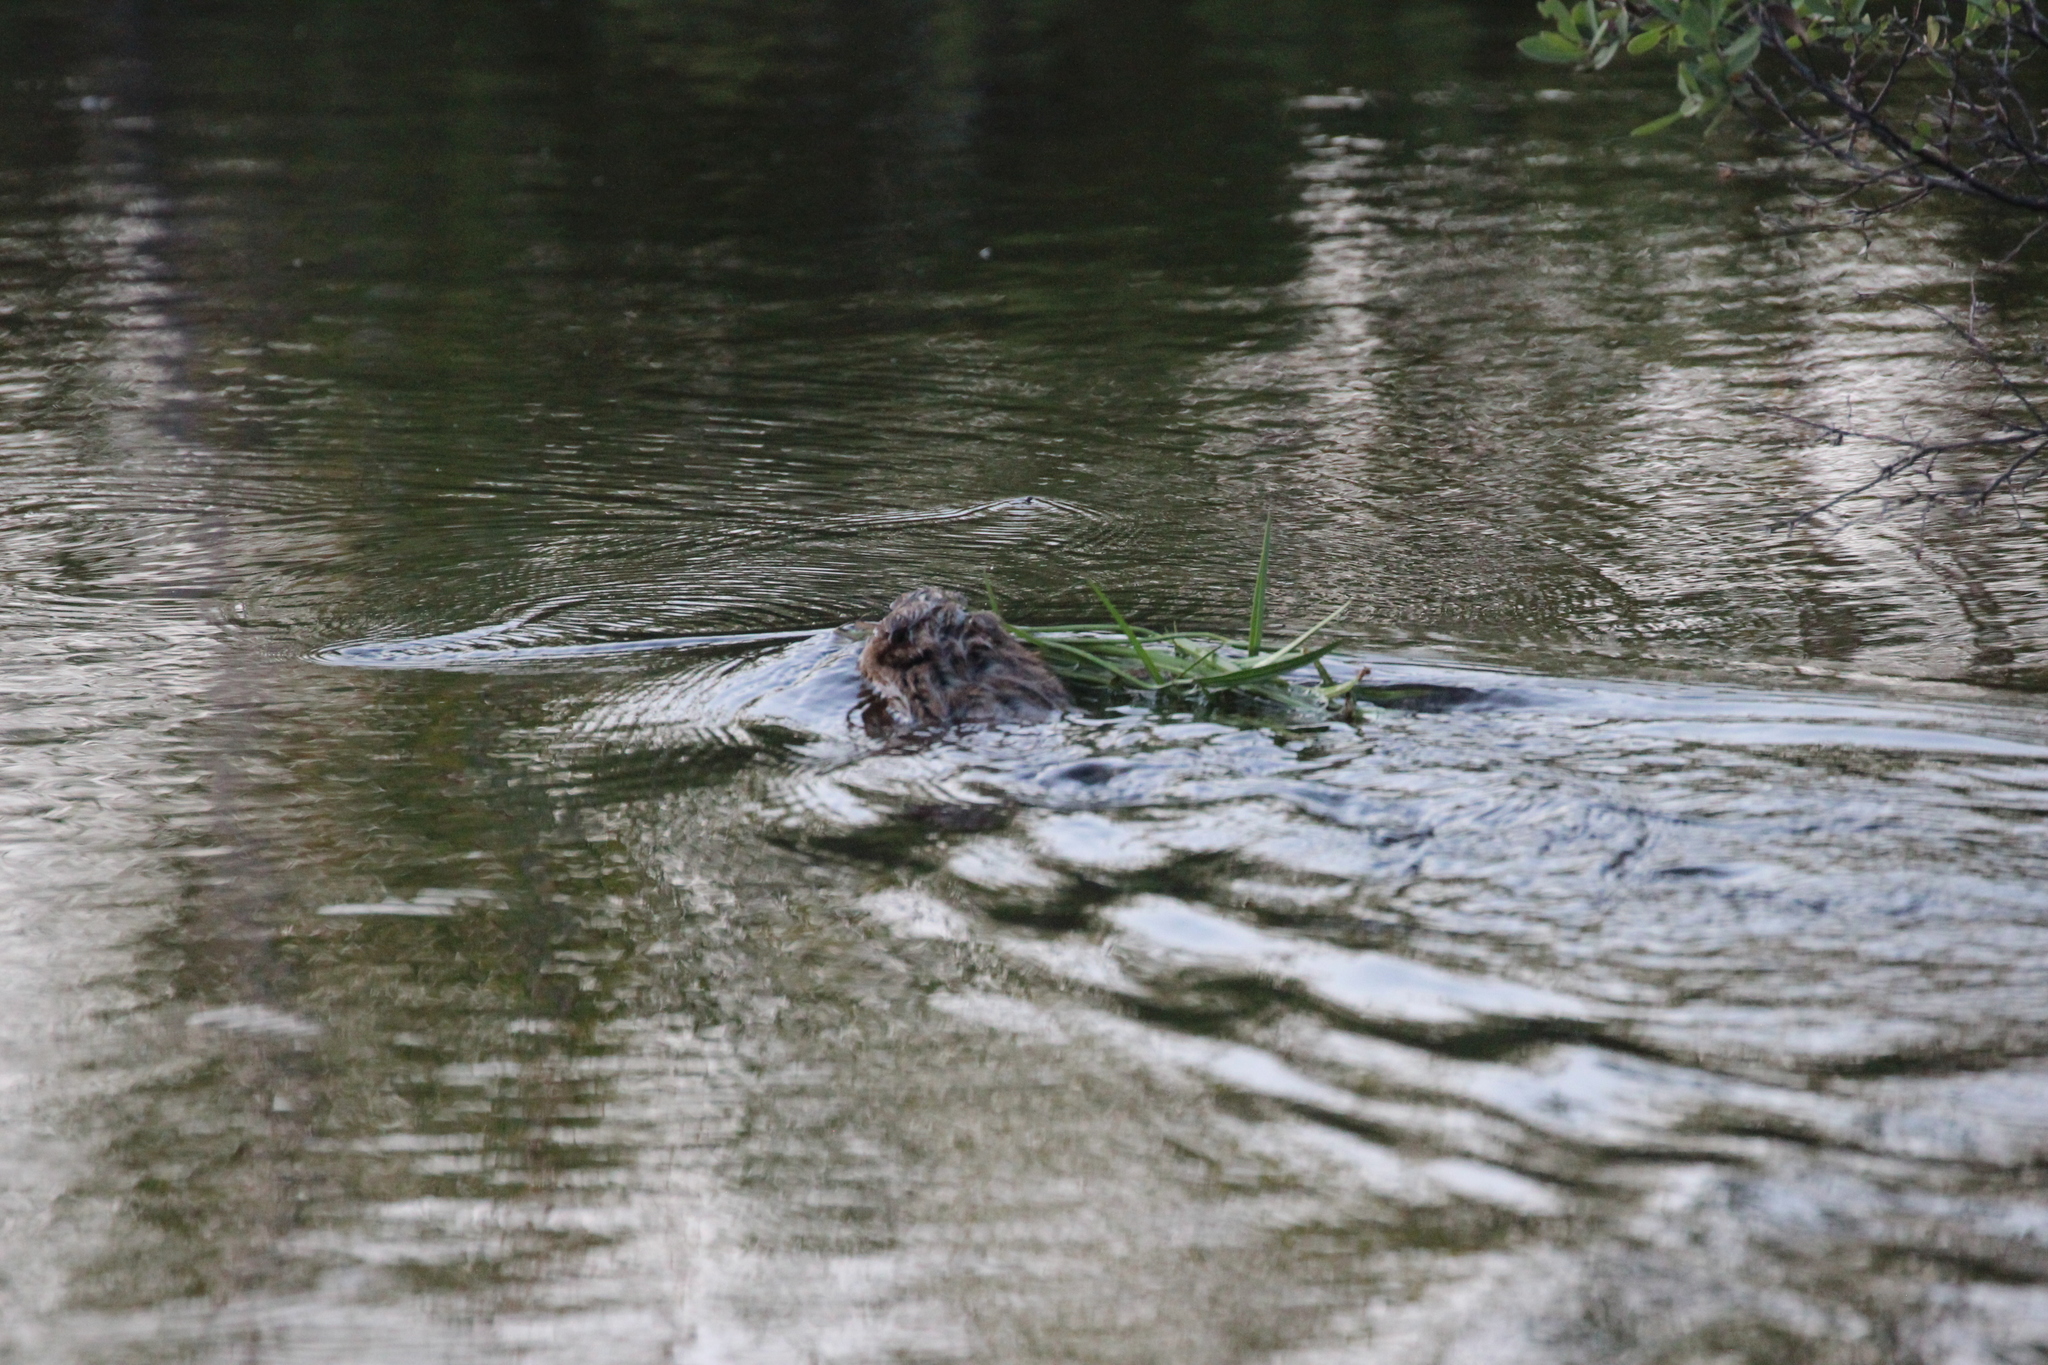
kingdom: Animalia
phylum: Chordata
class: Mammalia
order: Rodentia
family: Cricetidae
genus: Ondatra
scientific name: Ondatra zibethicus
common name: Muskrat
